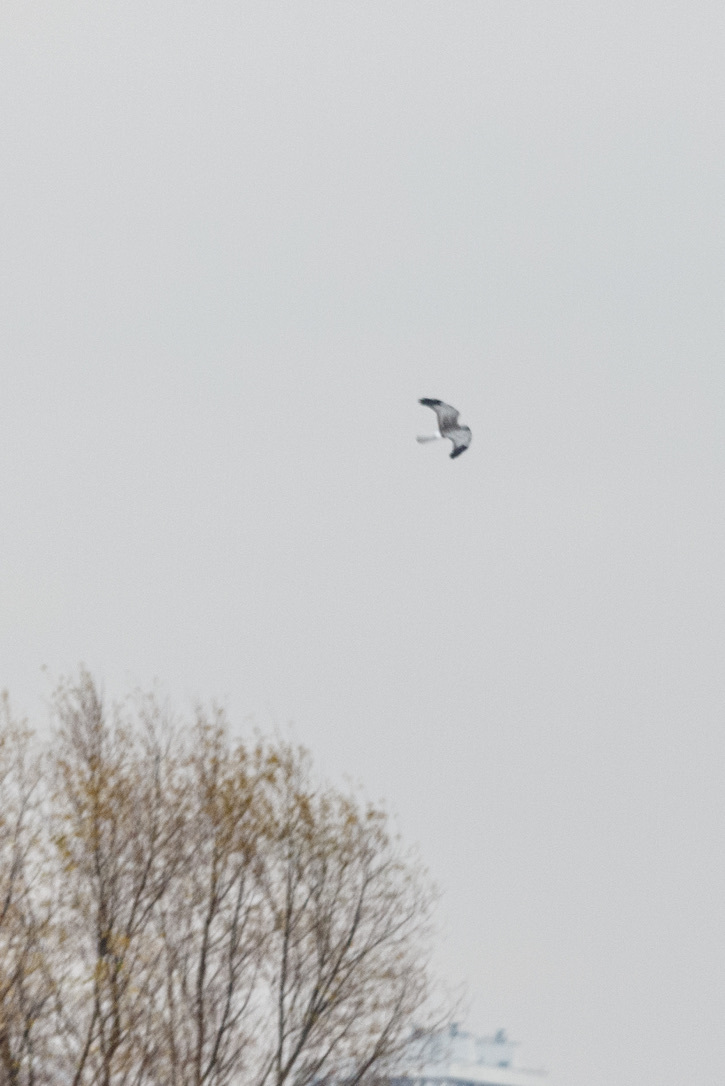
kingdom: Animalia
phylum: Chordata
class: Aves
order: Accipitriformes
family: Accipitridae
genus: Circus
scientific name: Circus cyaneus
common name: Hen harrier
